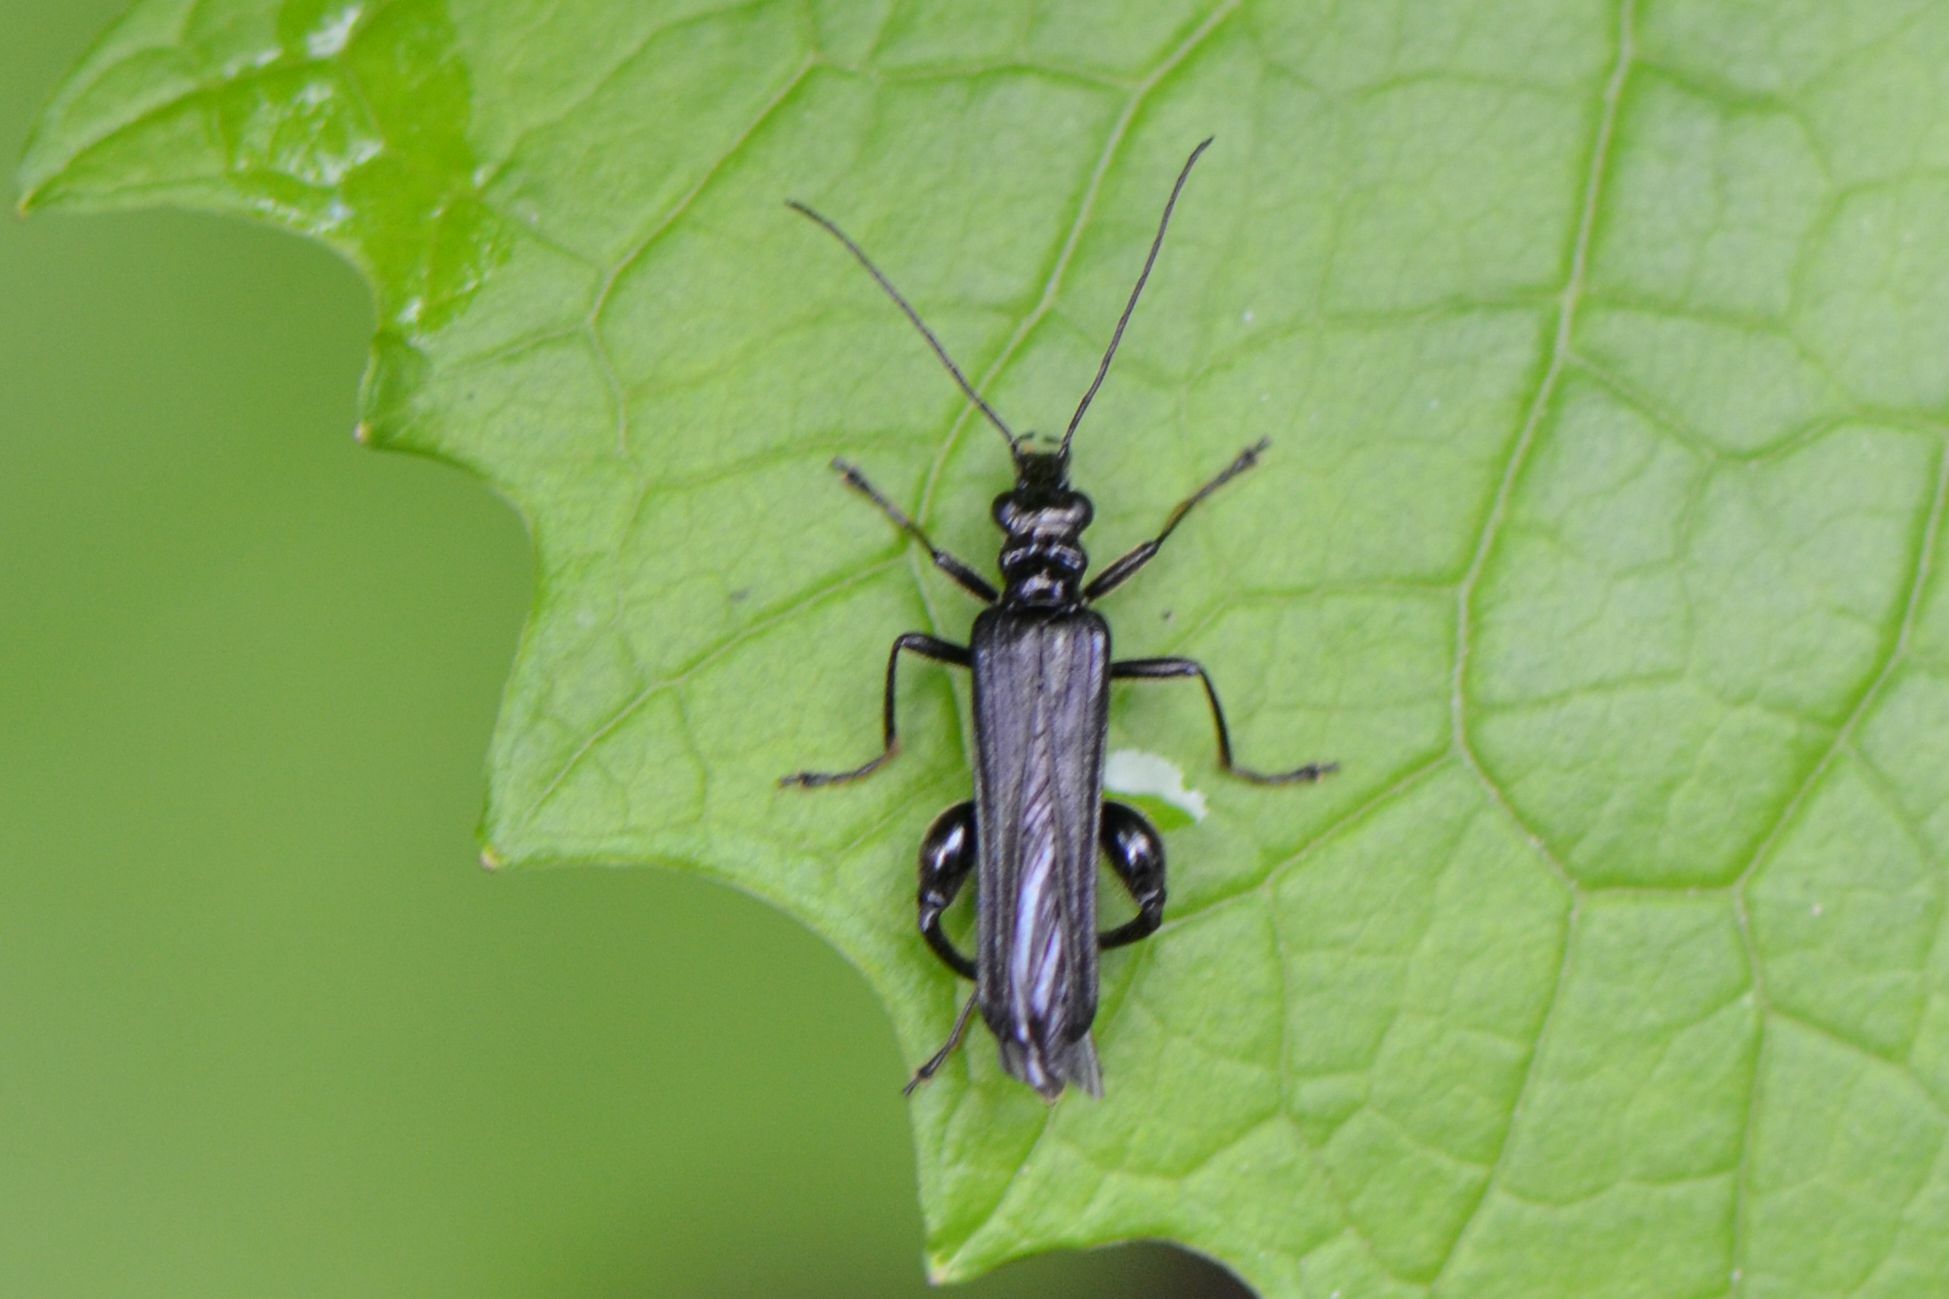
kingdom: Animalia
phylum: Arthropoda
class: Insecta
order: Coleoptera
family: Oedemeridae
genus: Oedemera
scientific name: Oedemera tristis
